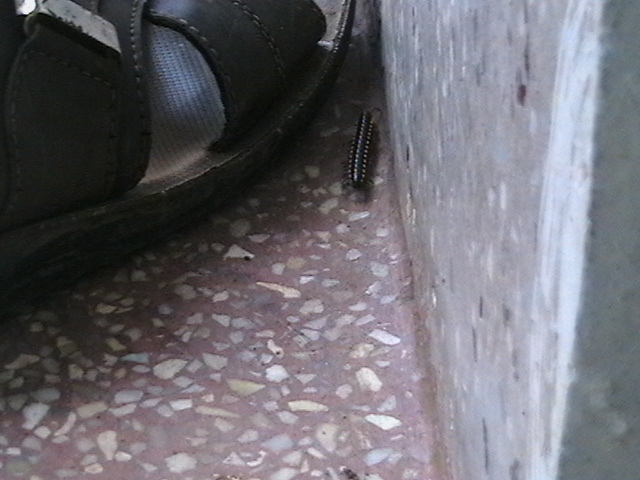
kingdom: Animalia
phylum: Arthropoda
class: Diplopoda
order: Polydesmida
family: Paradoxosomatidae
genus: Orthomorpha
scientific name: Orthomorpha coarctata
